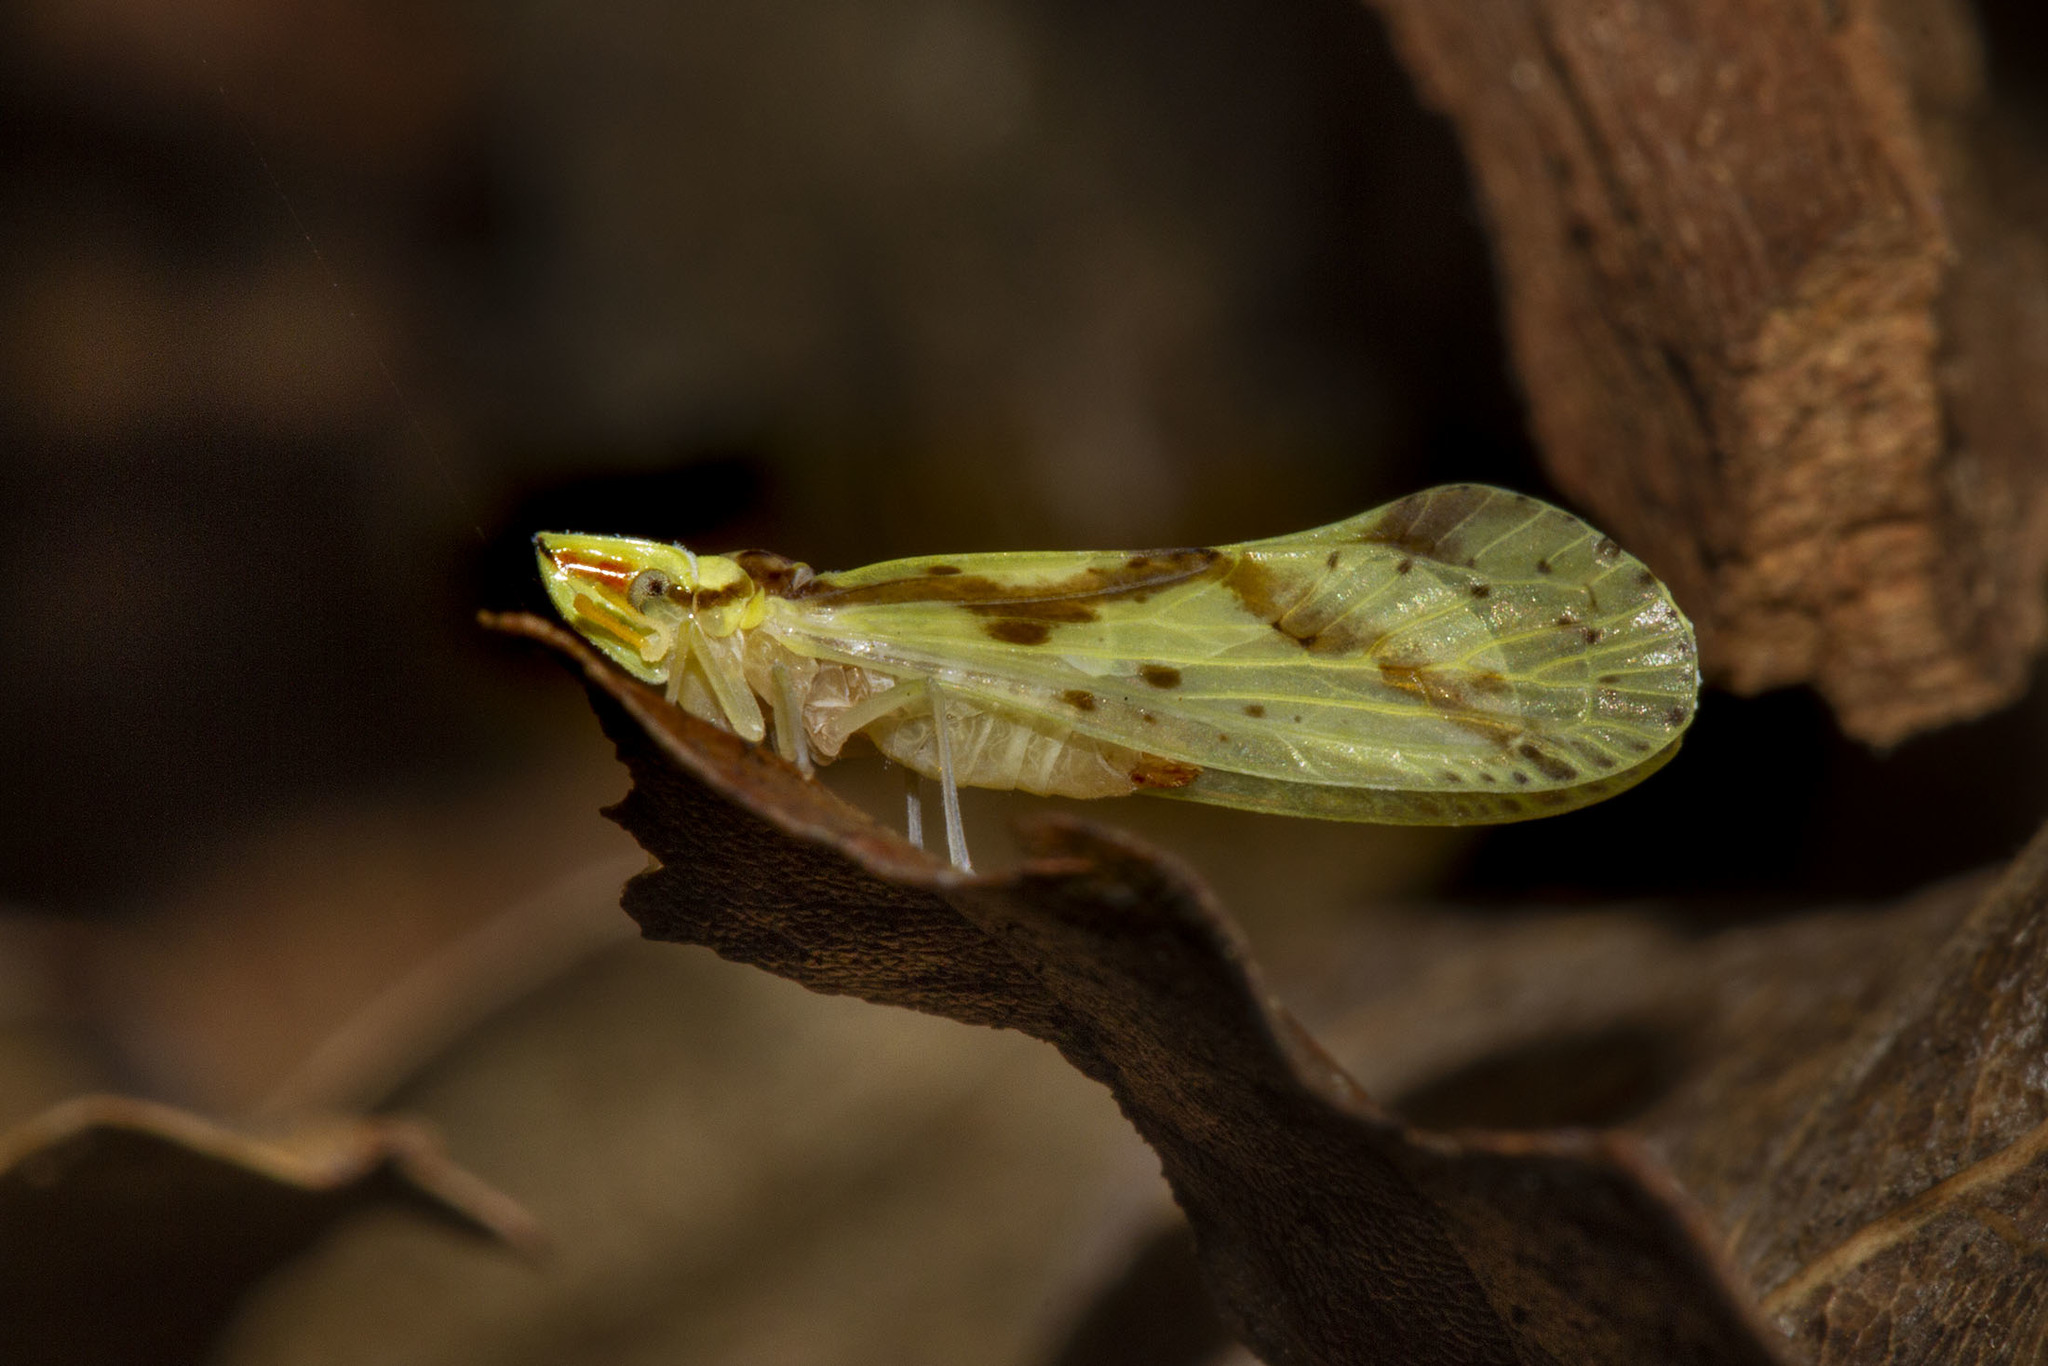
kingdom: Animalia
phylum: Arthropoda
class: Insecta
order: Hemiptera
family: Derbidae
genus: Otiocerus
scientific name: Otiocerus wolfii
